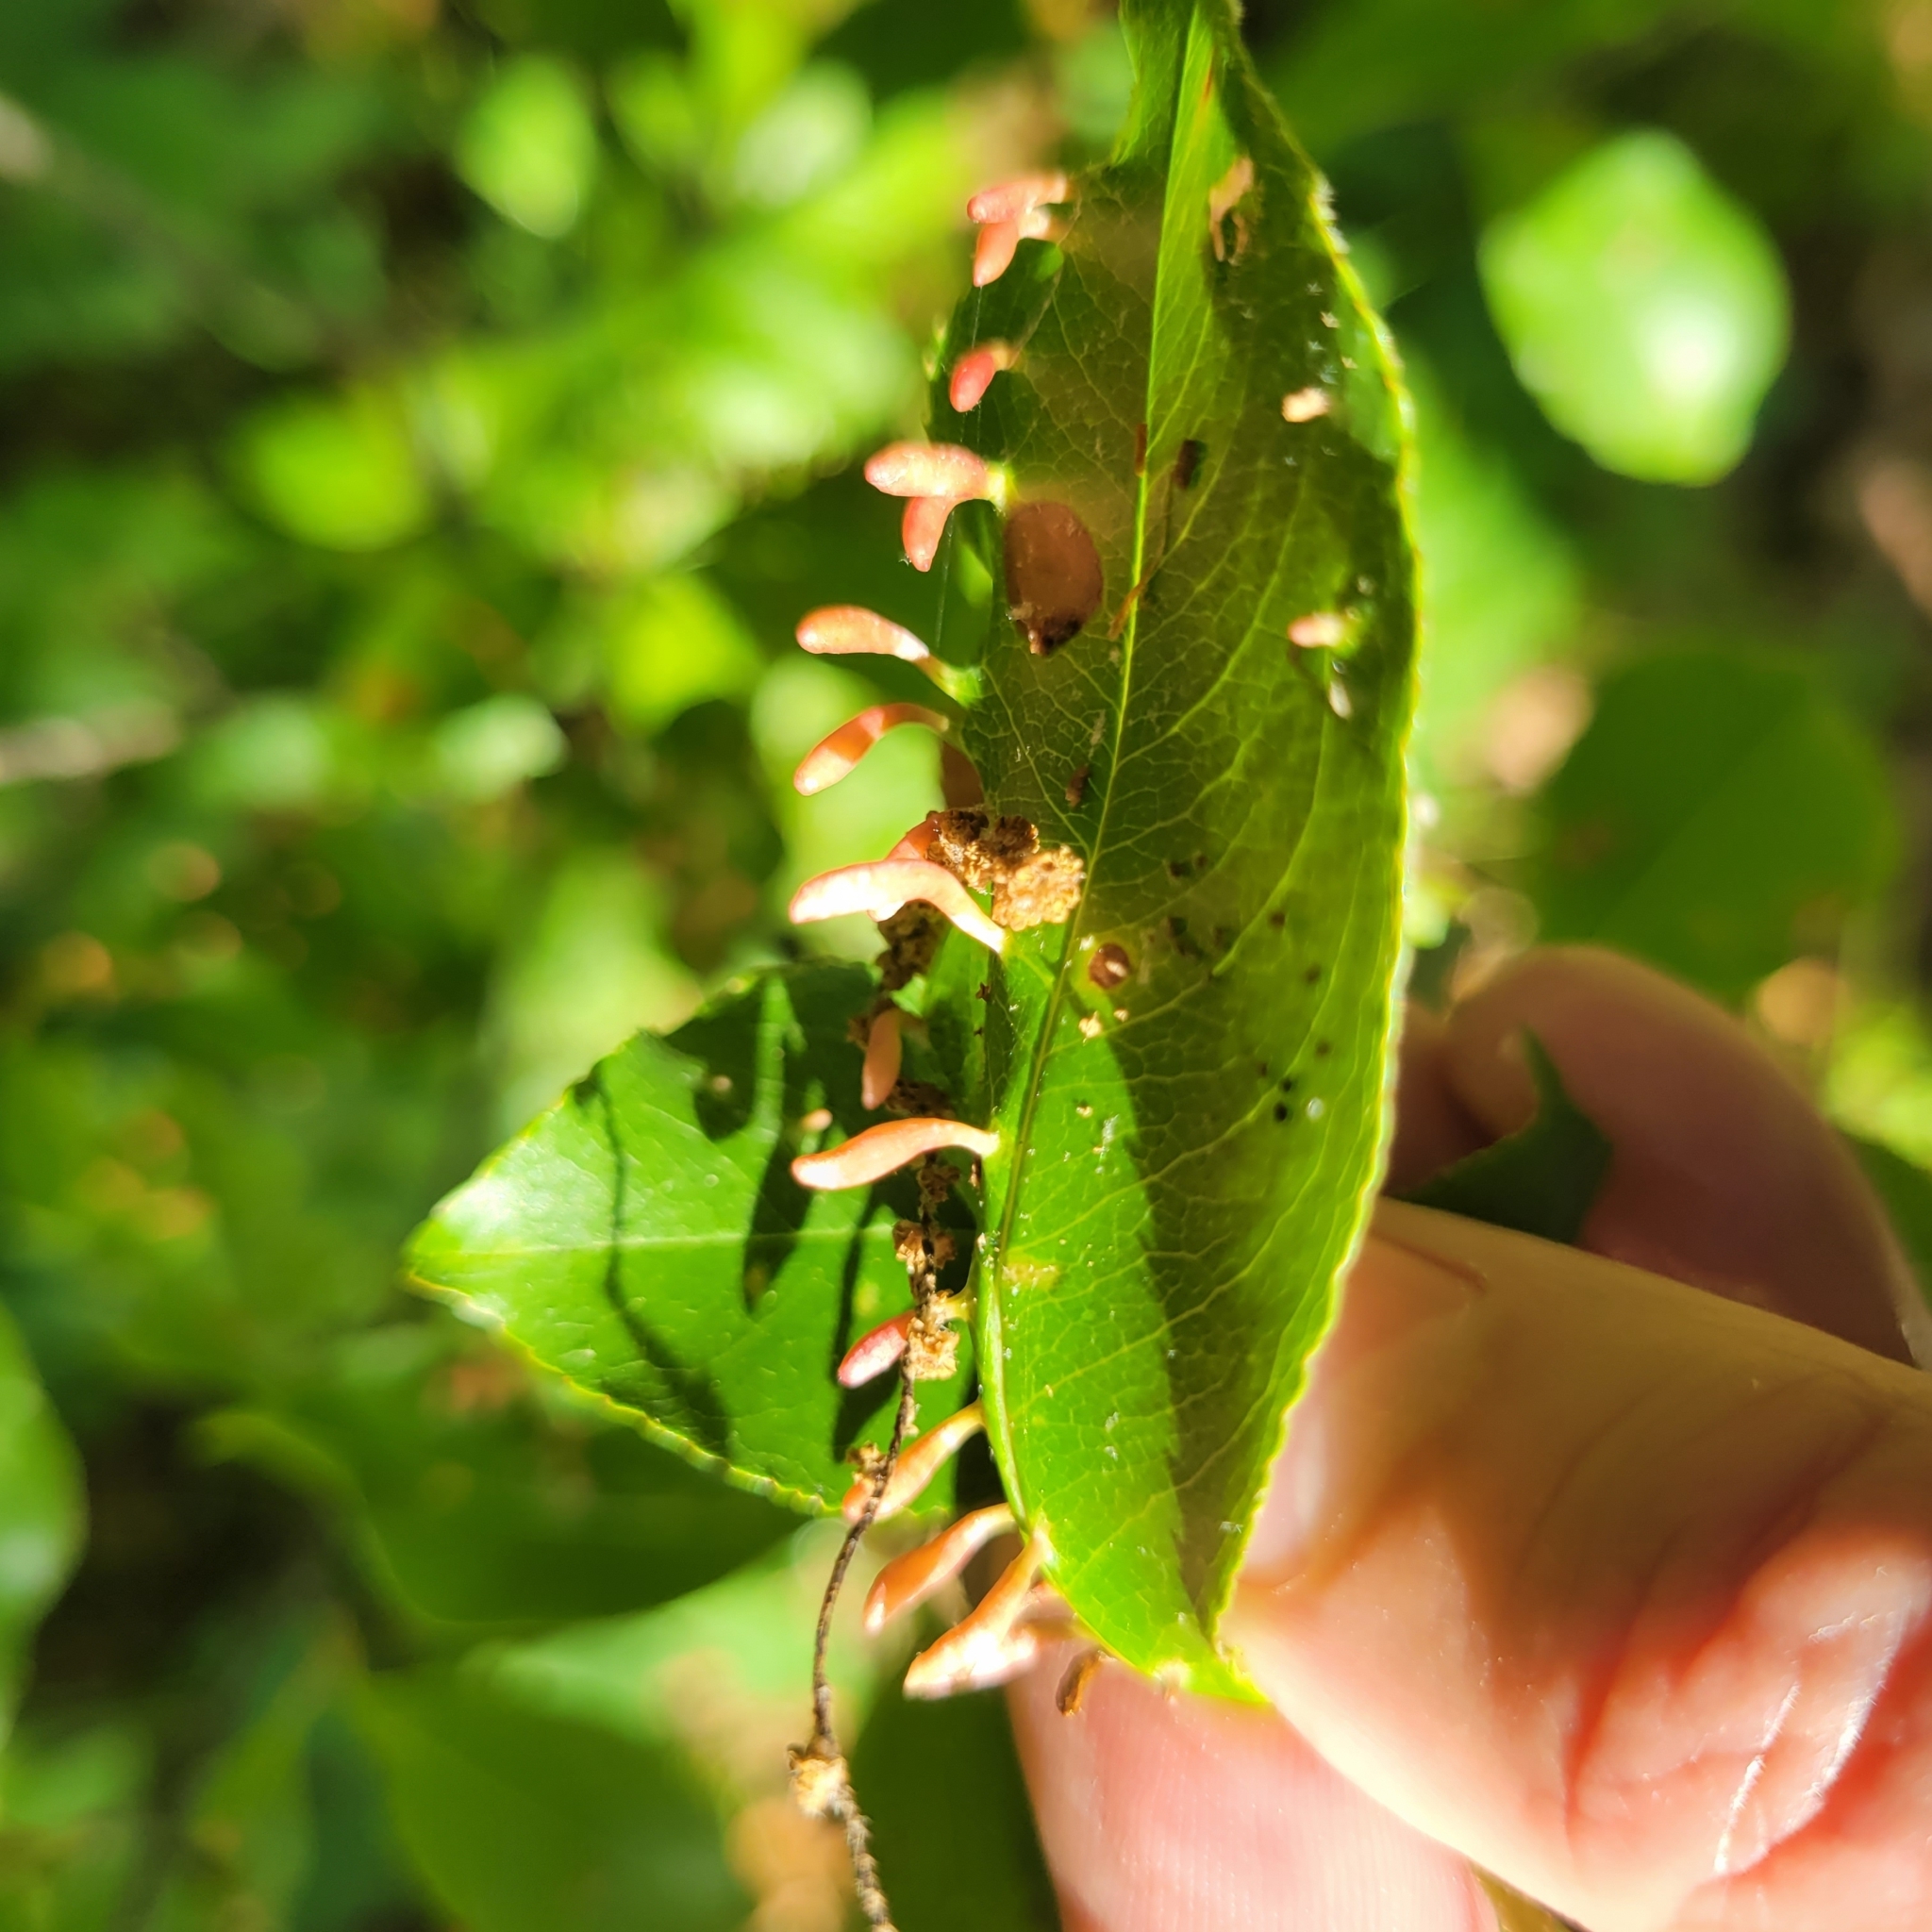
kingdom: Animalia
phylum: Arthropoda
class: Arachnida
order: Trombidiformes
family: Eriophyidae
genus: Eriophyes
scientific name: Eriophyes
